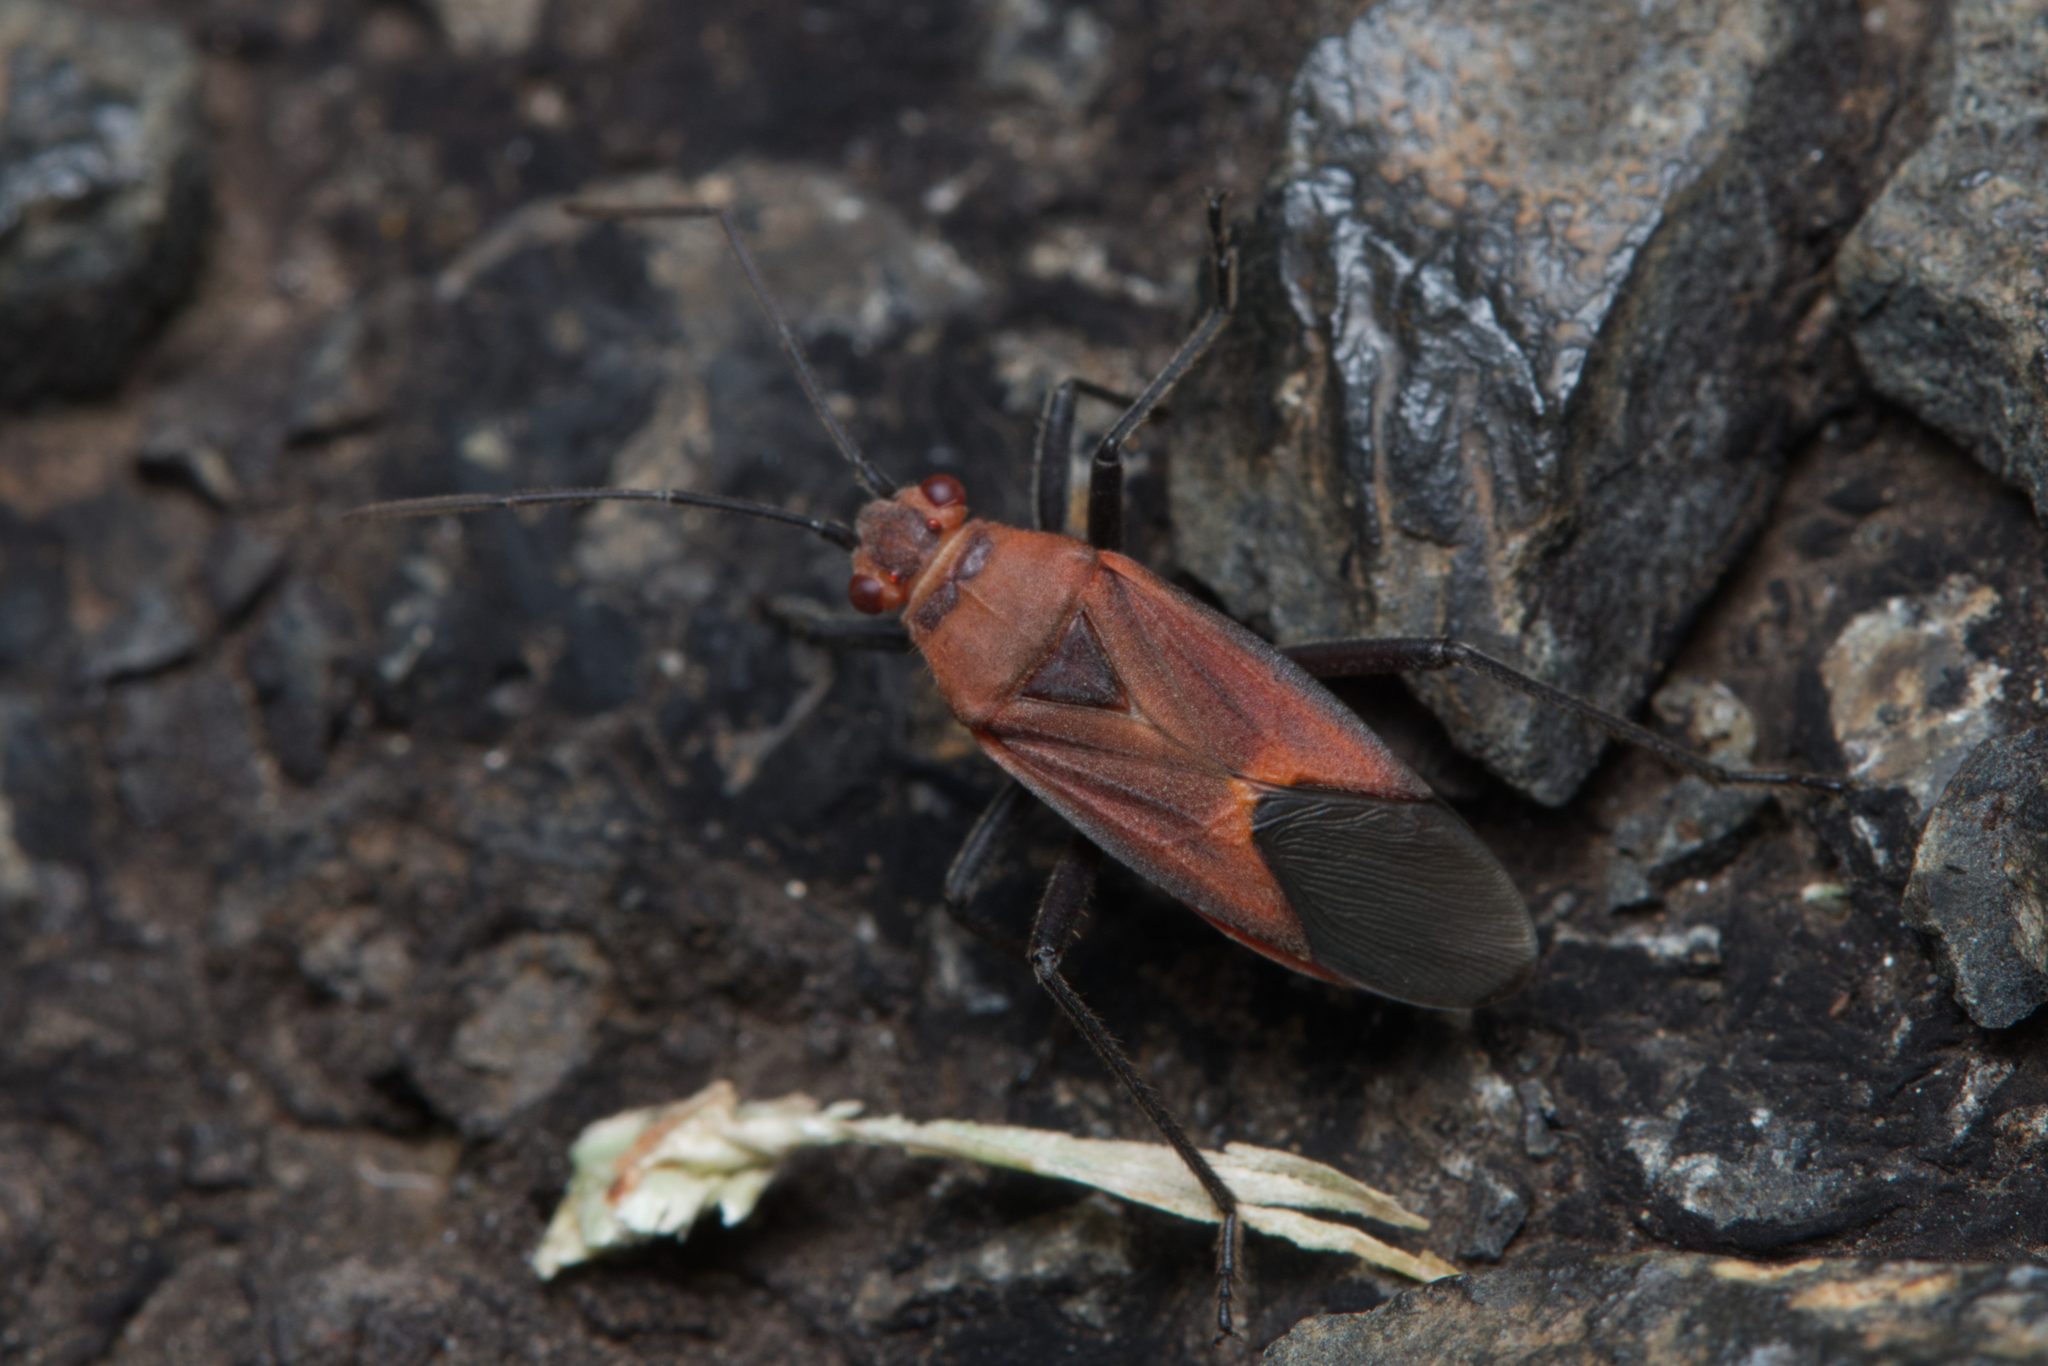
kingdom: Animalia
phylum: Arthropoda
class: Insecta
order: Hemiptera
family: Rhopalidae
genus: Leptocoris
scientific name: Leptocoris mitellatus
